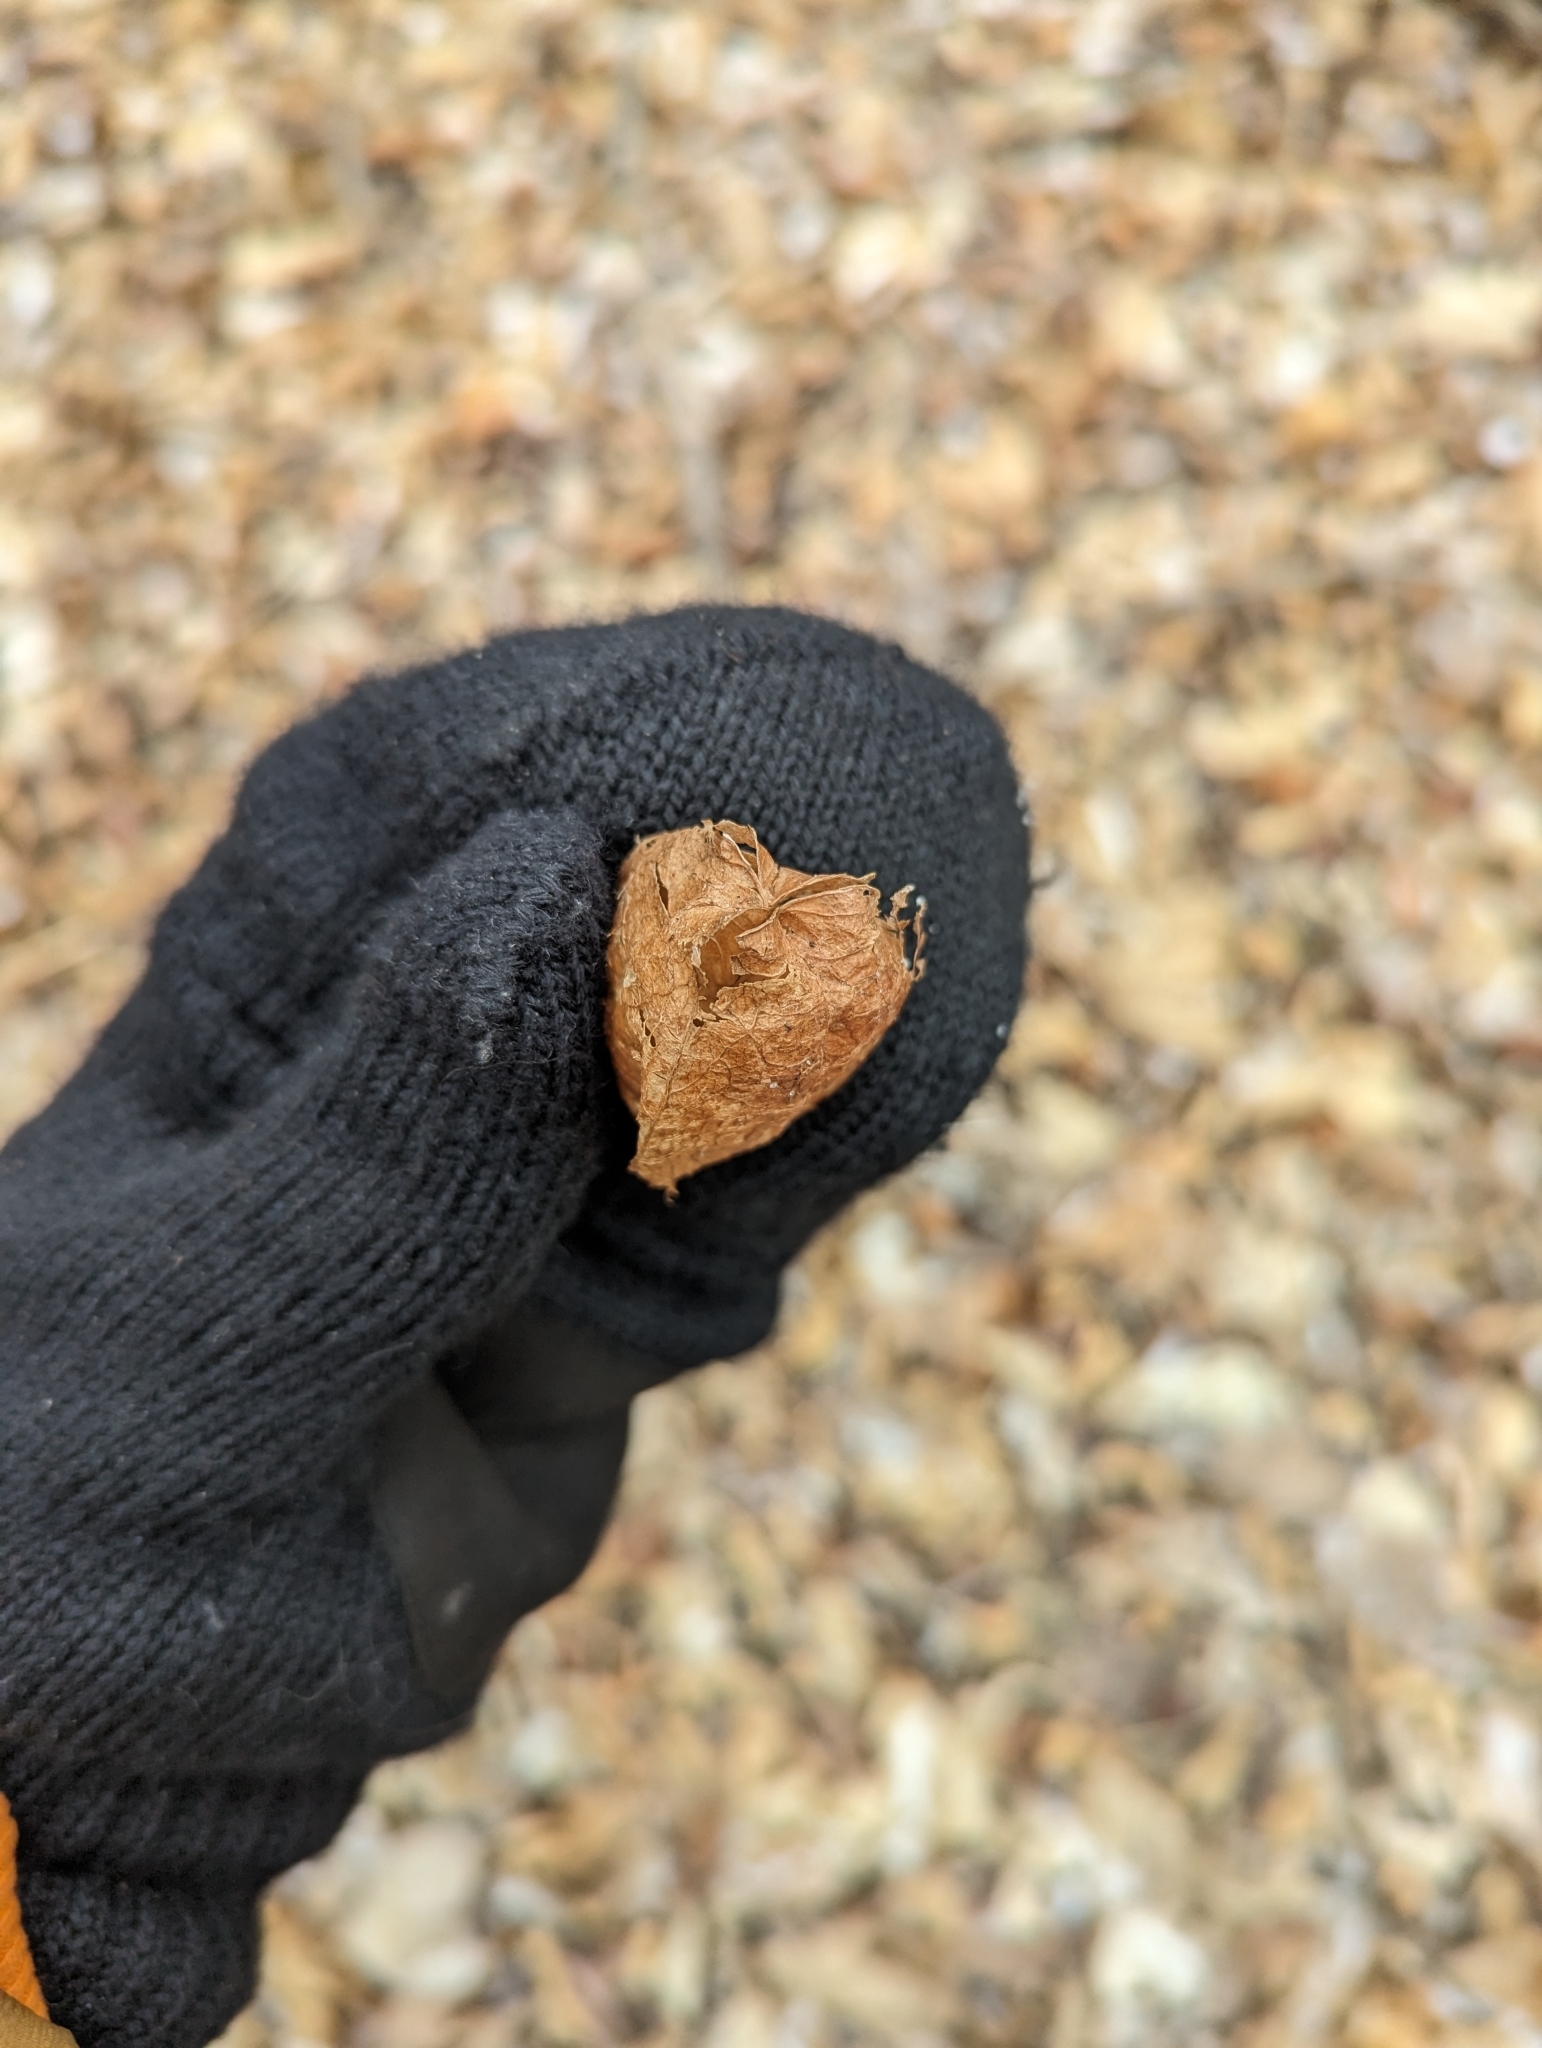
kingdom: Plantae
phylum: Tracheophyta
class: Magnoliopsida
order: Crossosomatales
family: Staphyleaceae
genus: Staphylea
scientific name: Staphylea trifolia
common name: American bladdernut
